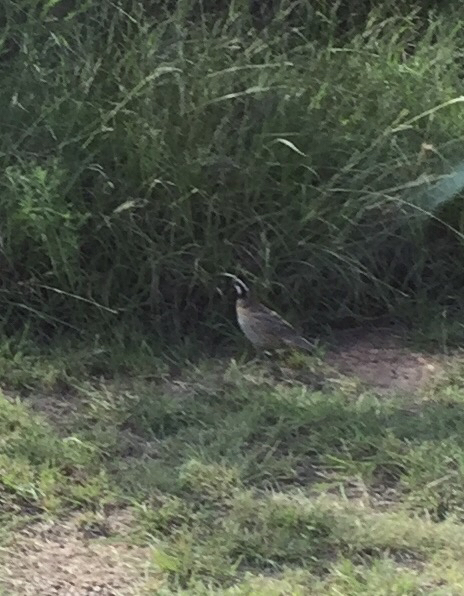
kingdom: Animalia
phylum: Chordata
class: Aves
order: Galliformes
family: Odontophoridae
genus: Colinus
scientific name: Colinus virginianus
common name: Northern bobwhite
